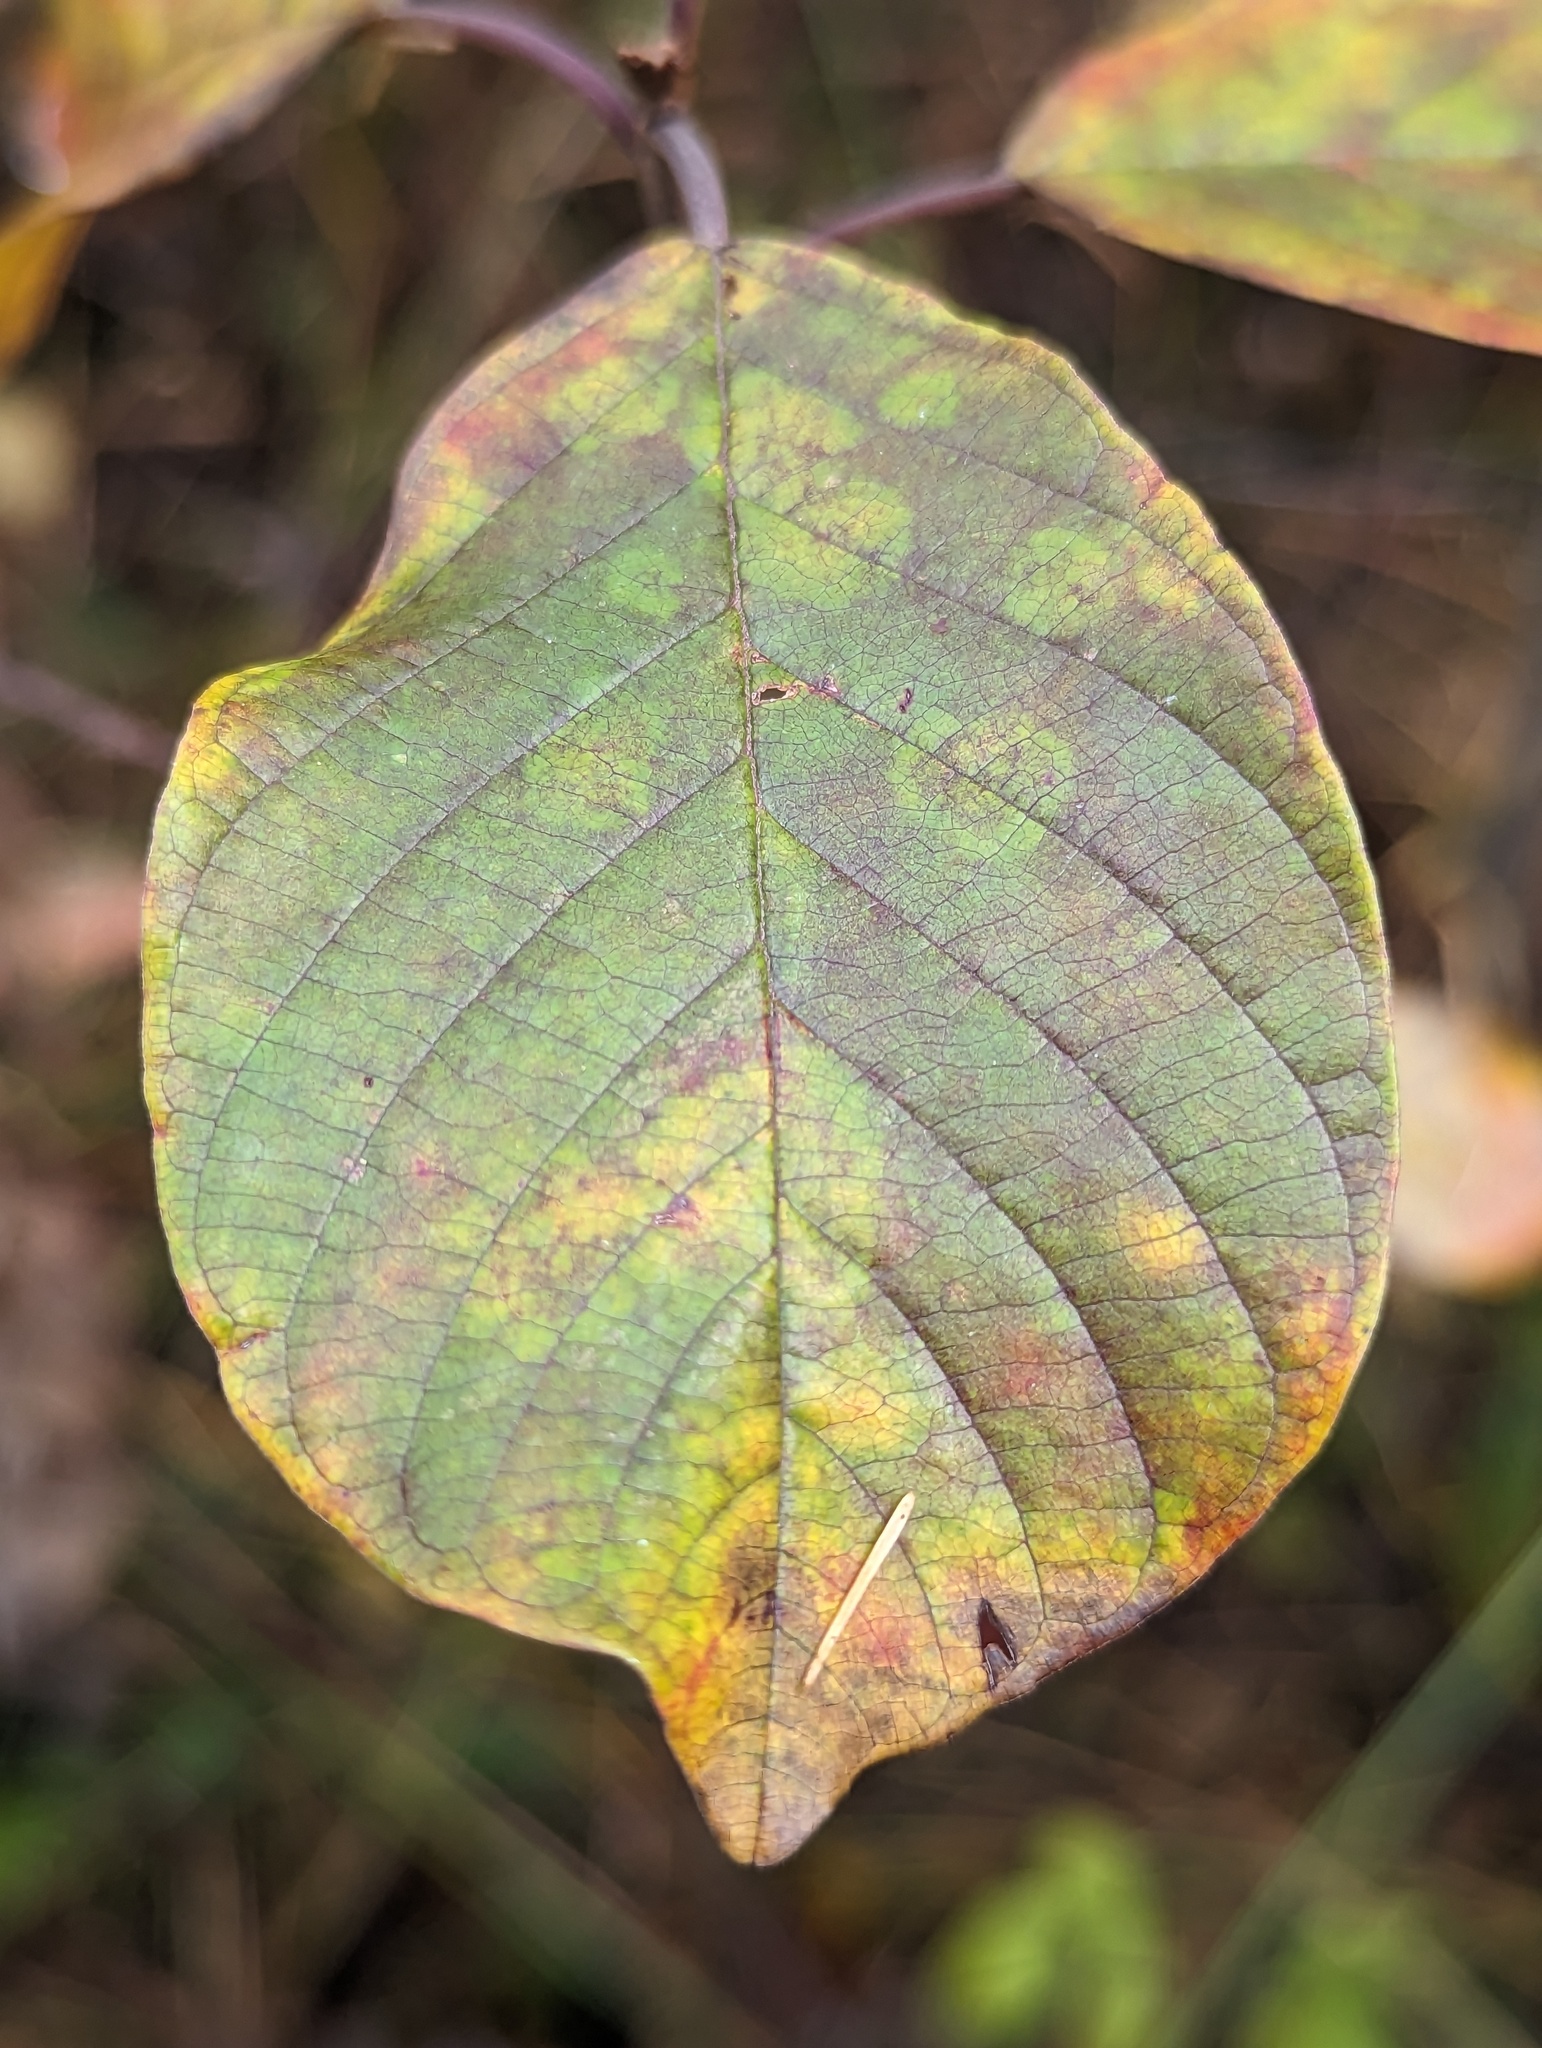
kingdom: Plantae
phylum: Tracheophyta
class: Magnoliopsida
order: Rosales
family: Rhamnaceae
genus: Frangula
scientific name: Frangula alnus
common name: Alder buckthorn
